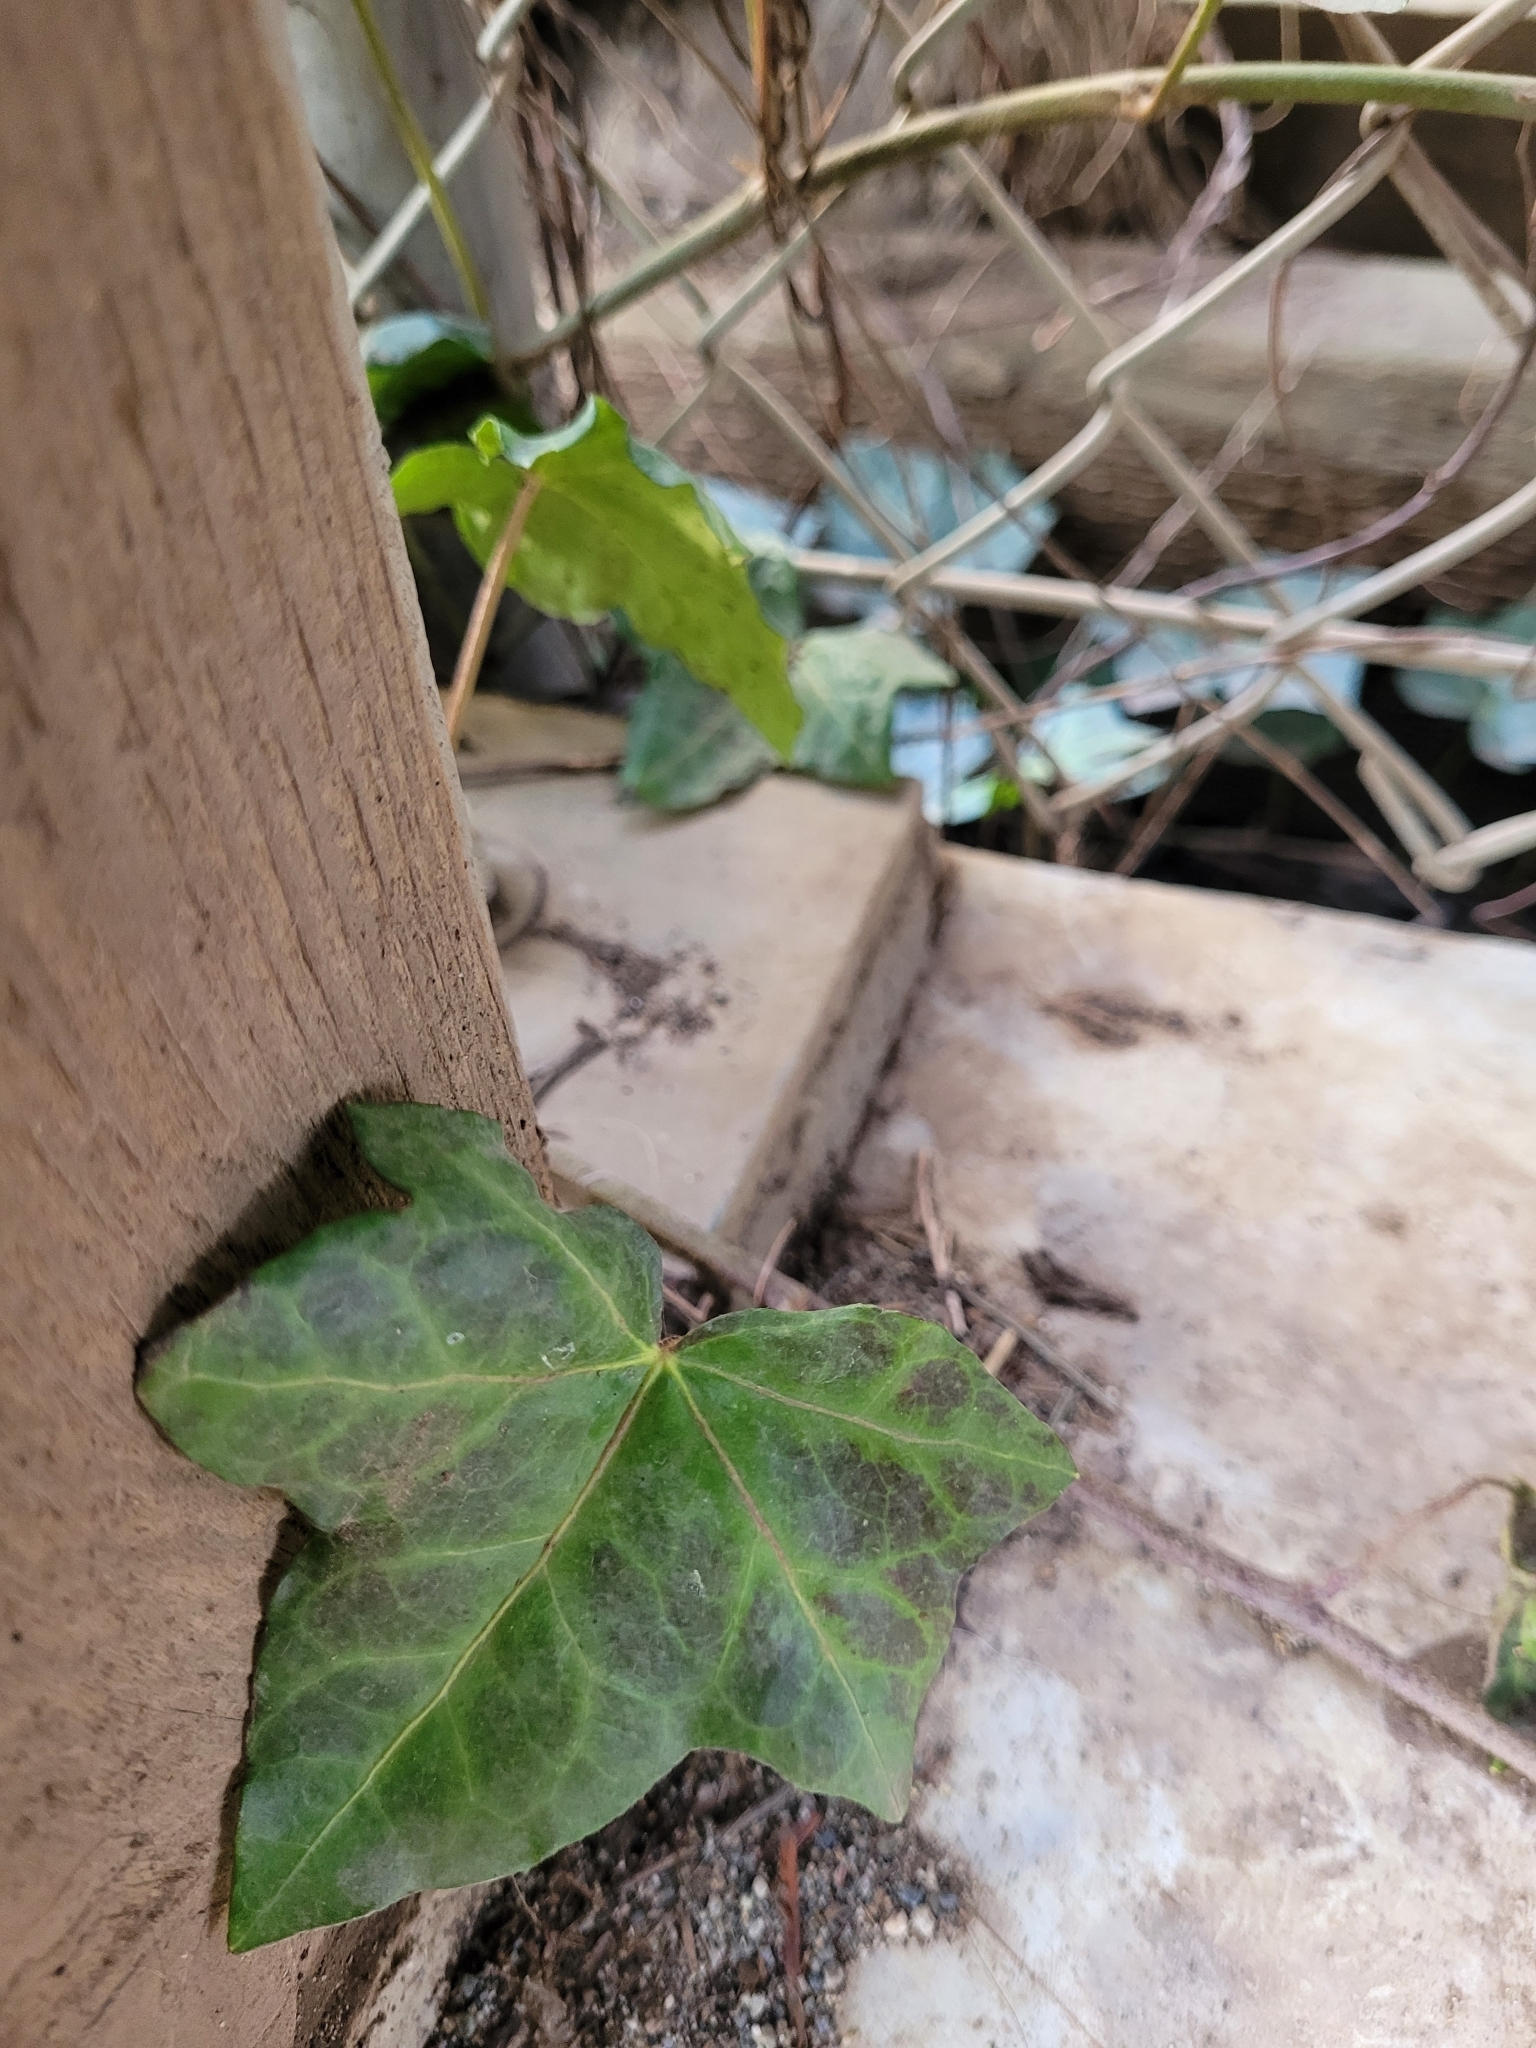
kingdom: Plantae
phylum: Tracheophyta
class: Magnoliopsida
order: Apiales
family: Araliaceae
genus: Hedera
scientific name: Hedera helix
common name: Ivy
